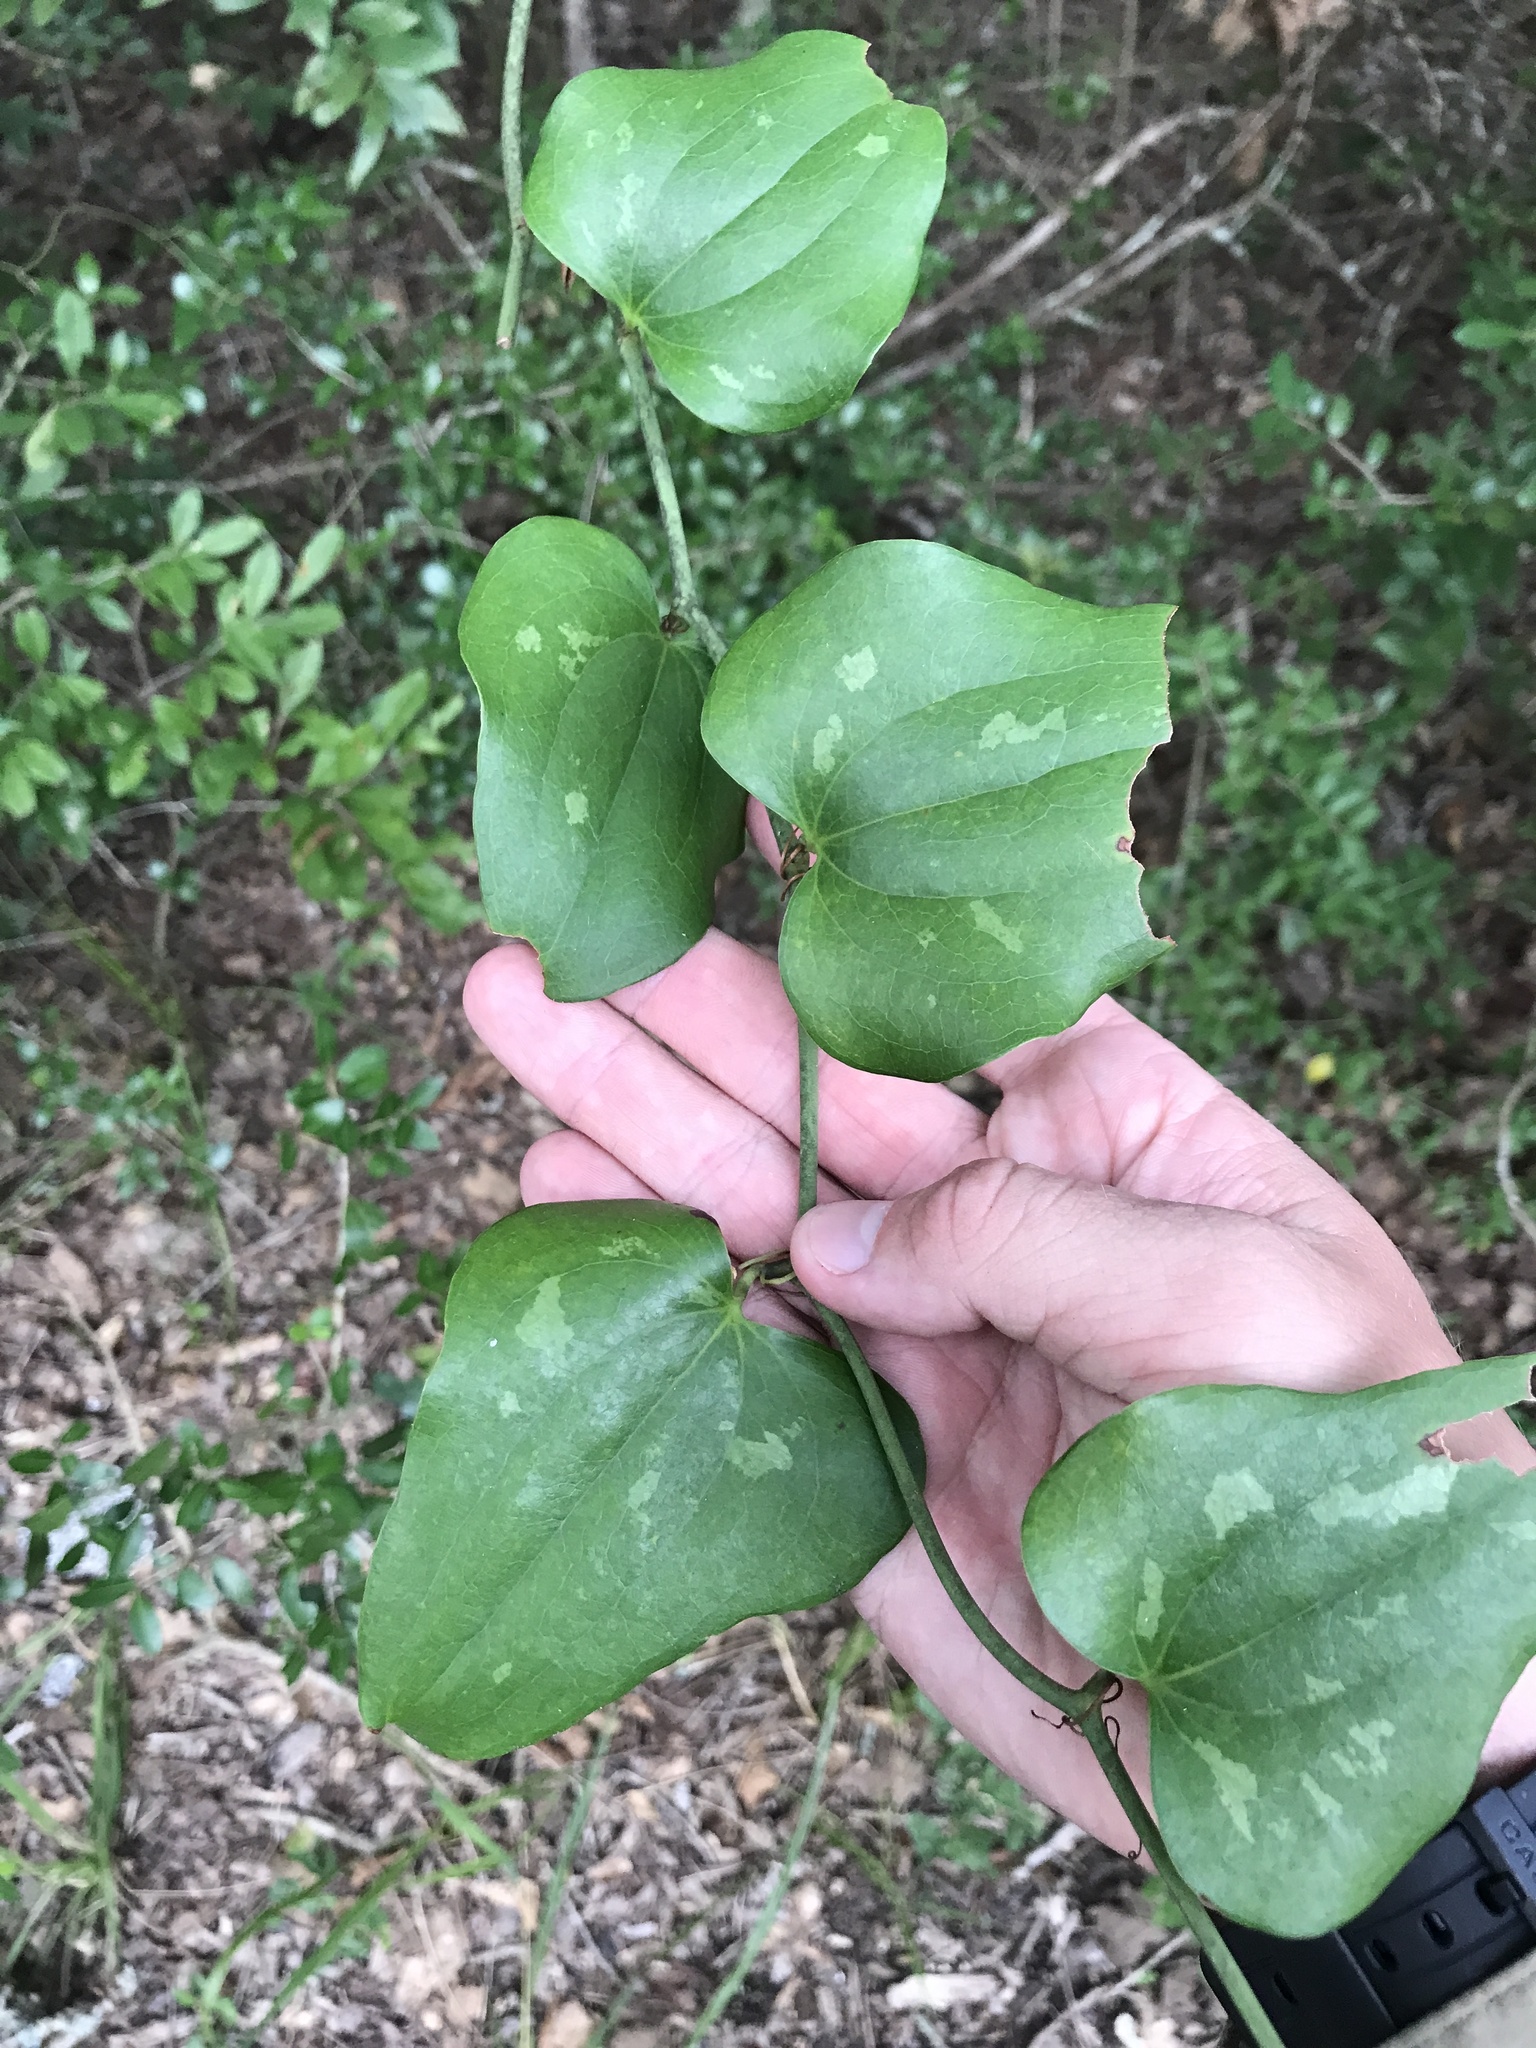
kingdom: Plantae
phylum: Tracheophyta
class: Liliopsida
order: Liliales
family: Smilacaceae
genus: Smilax
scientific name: Smilax bona-nox
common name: Catbrier
